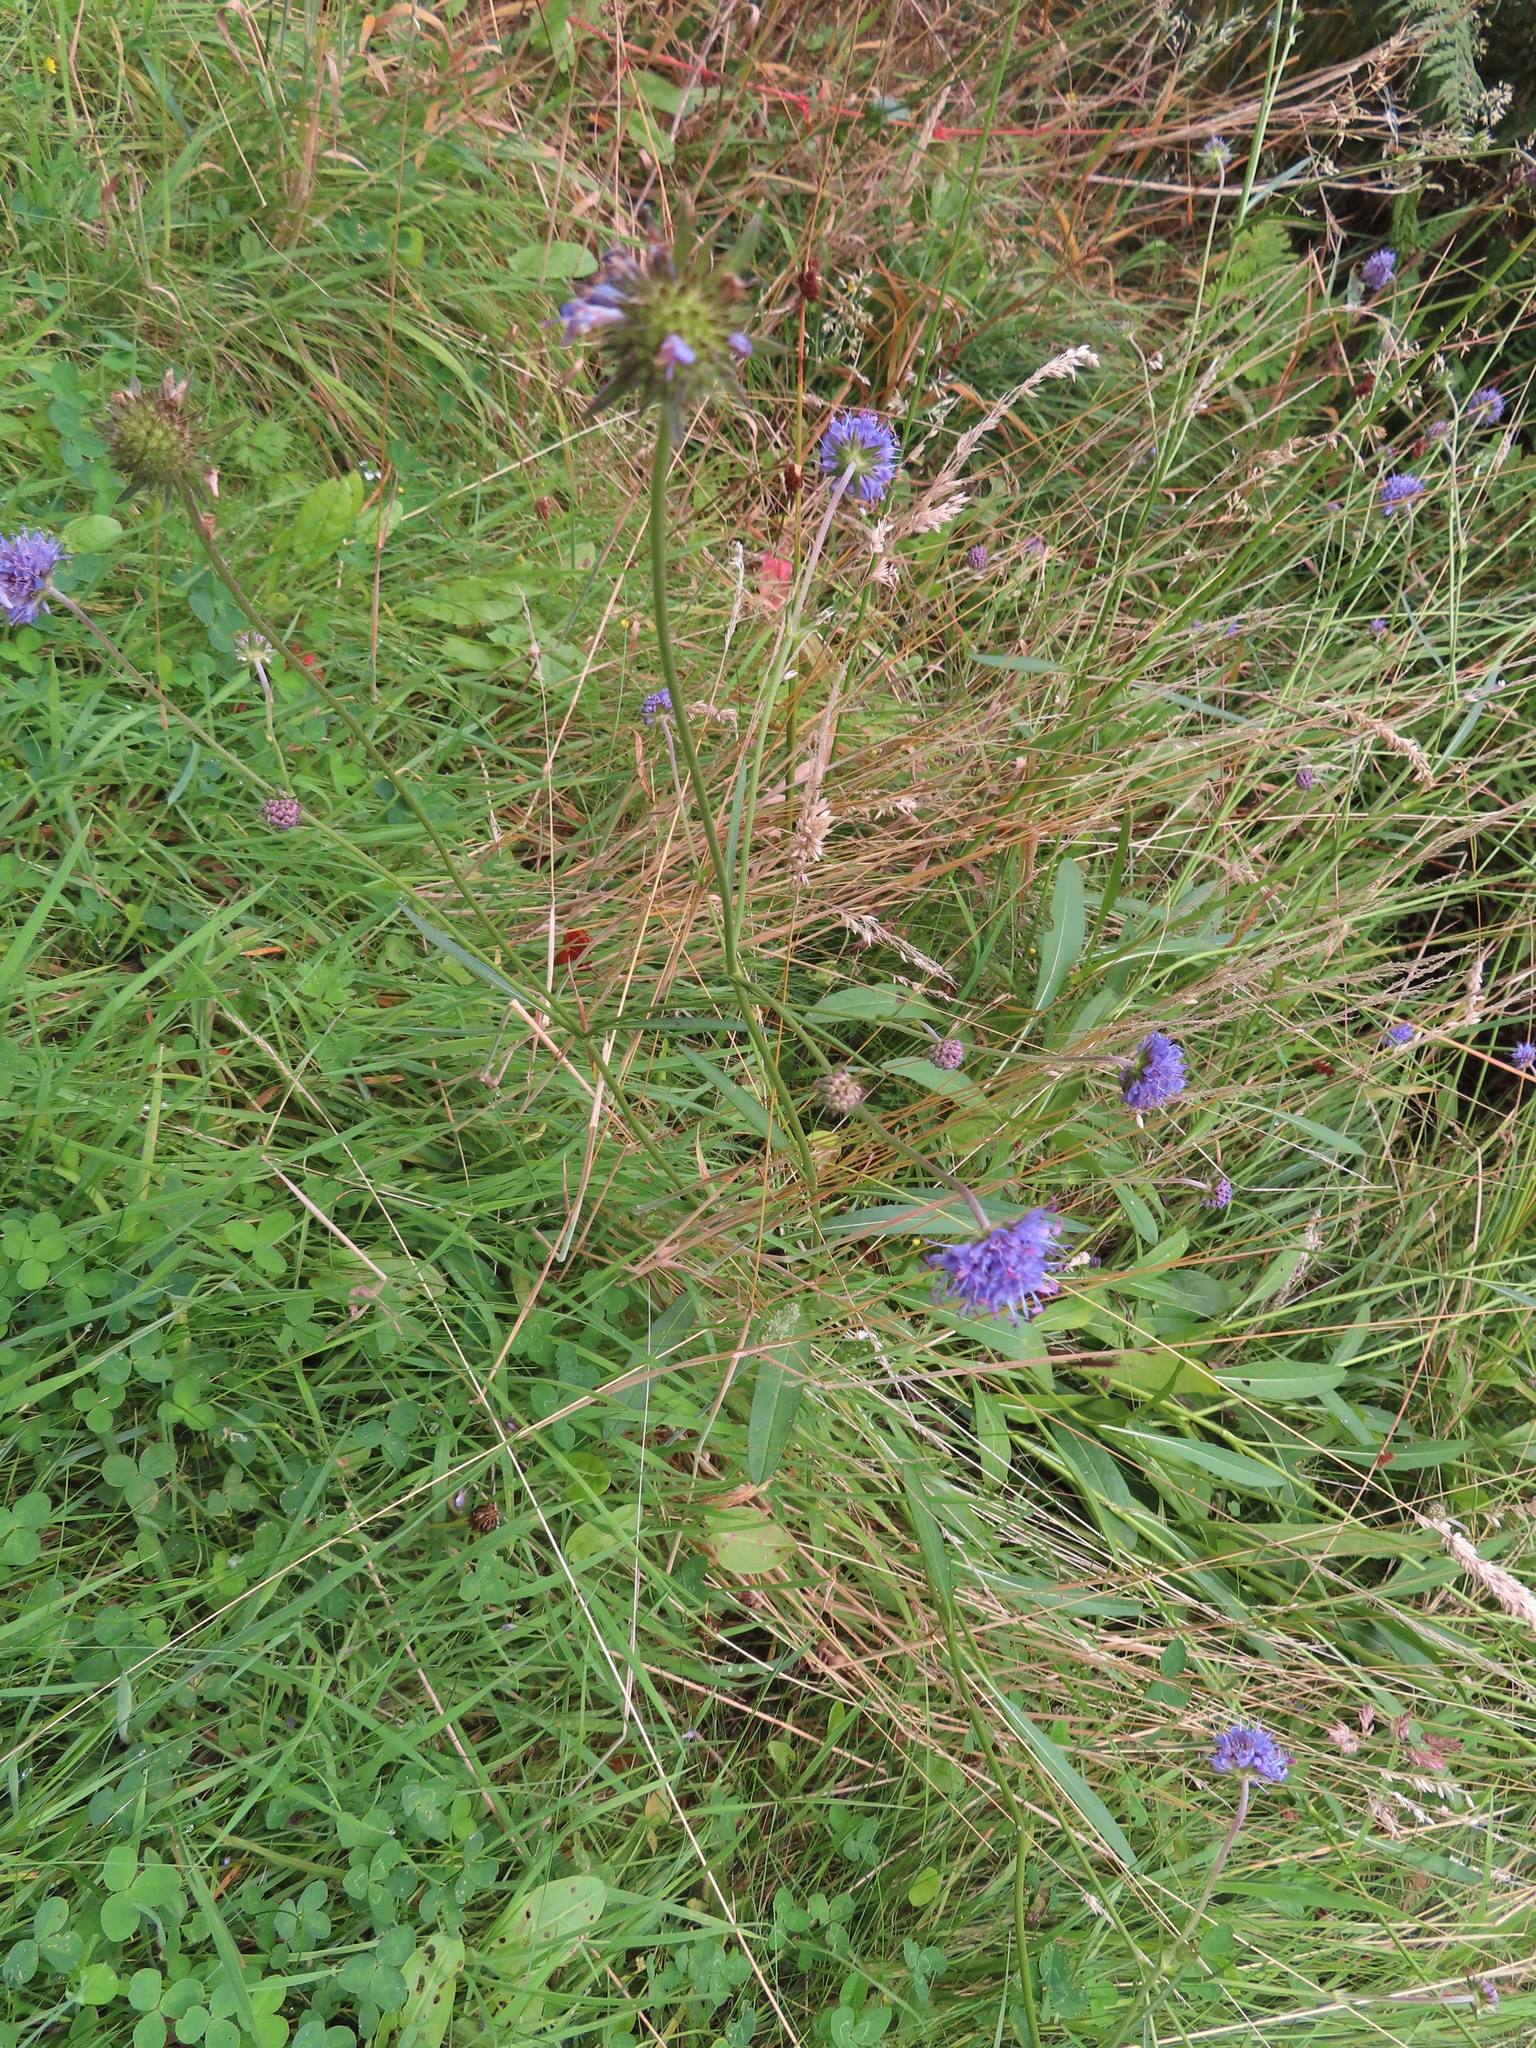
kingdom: Plantae
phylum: Tracheophyta
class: Magnoliopsida
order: Dipsacales
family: Caprifoliaceae
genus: Succisa
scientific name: Succisa pratensis
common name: Devil's-bit
